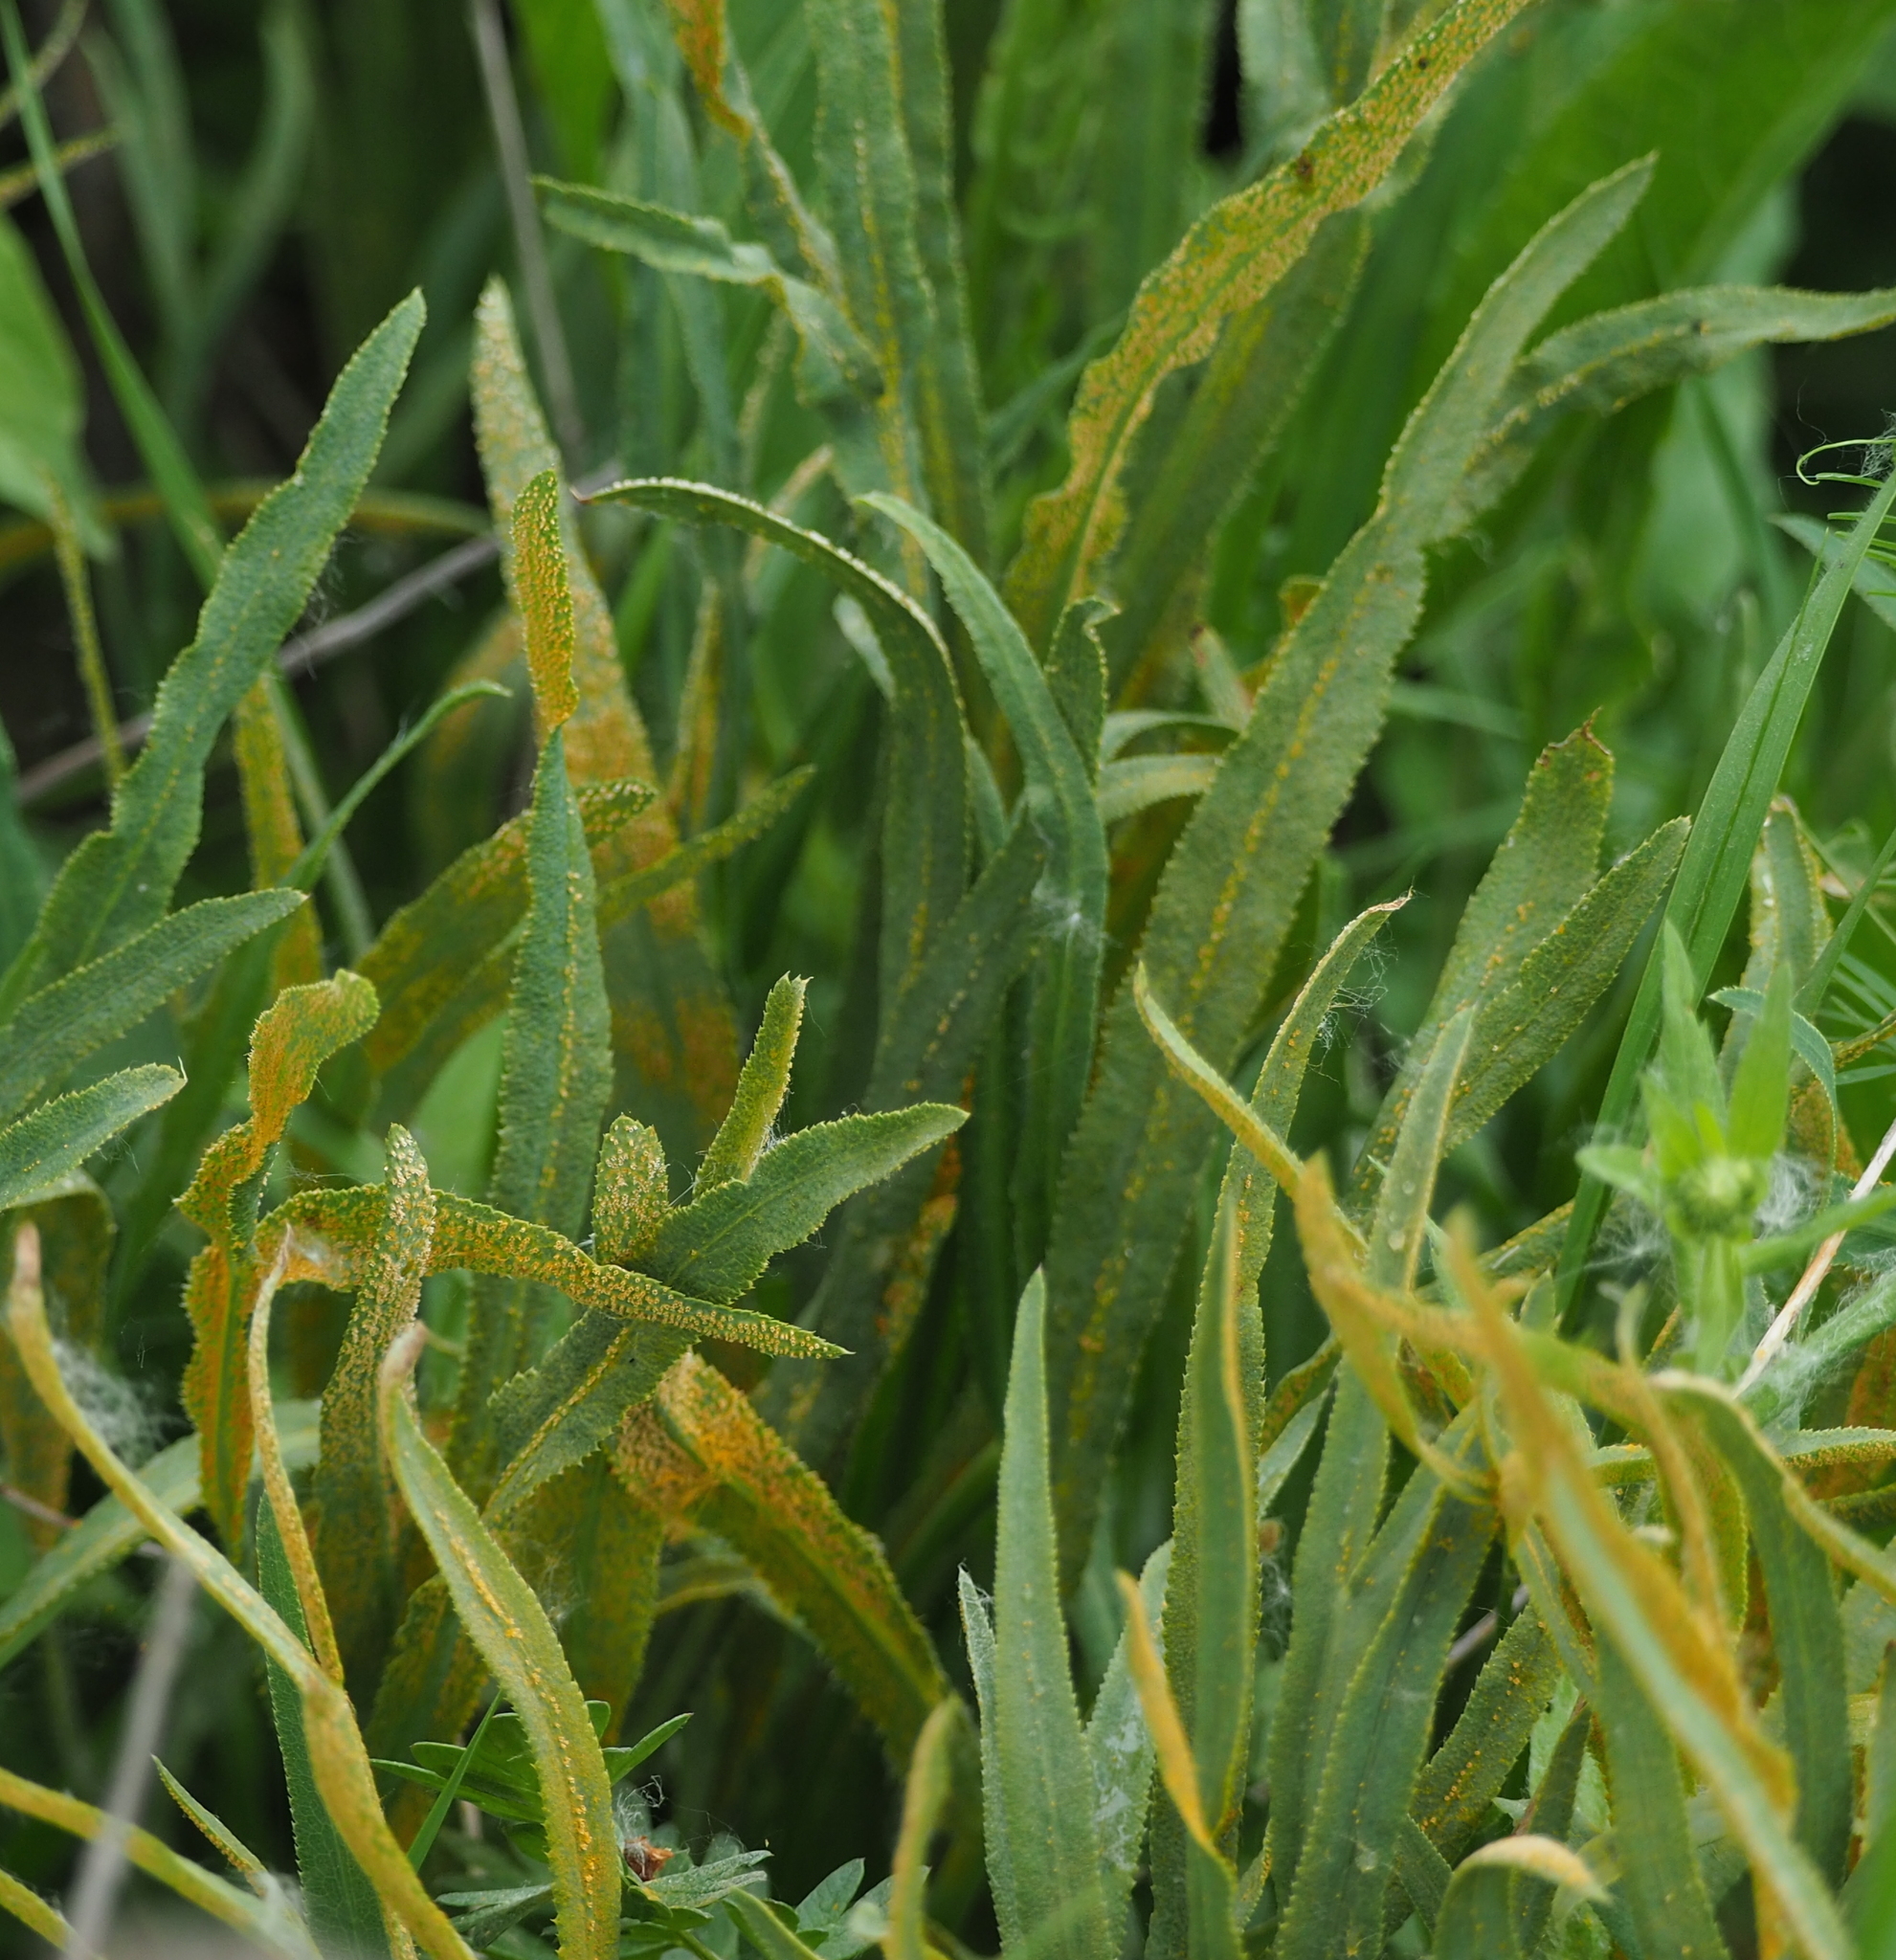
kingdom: Fungi
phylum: Basidiomycota
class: Pucciniomycetes
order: Pucciniales
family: Pucciniaceae
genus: Puccinia
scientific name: Puccinia sii-falcariae
